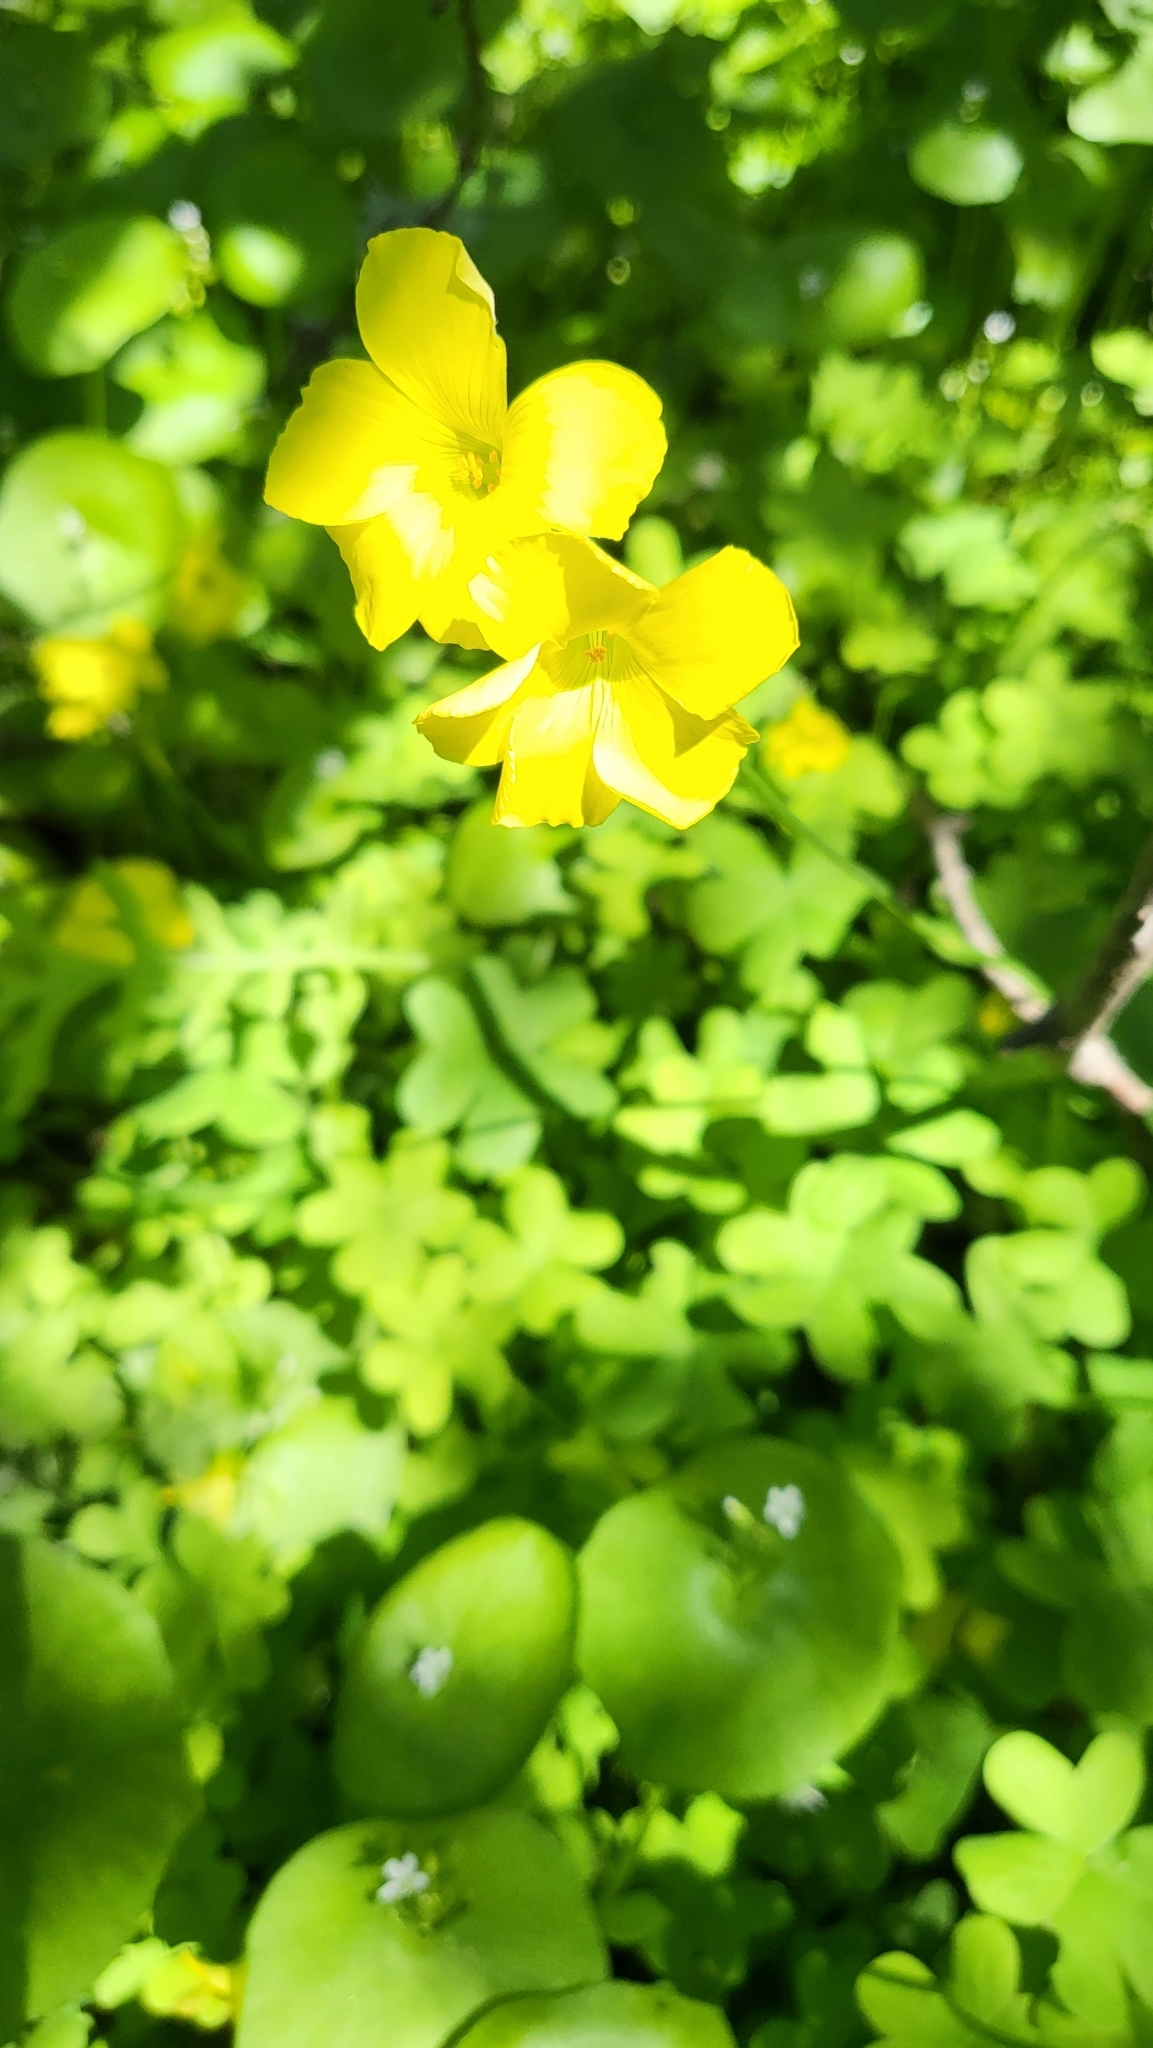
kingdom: Plantae
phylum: Tracheophyta
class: Magnoliopsida
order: Oxalidales
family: Oxalidaceae
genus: Oxalis
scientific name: Oxalis pes-caprae
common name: Bermuda-buttercup
